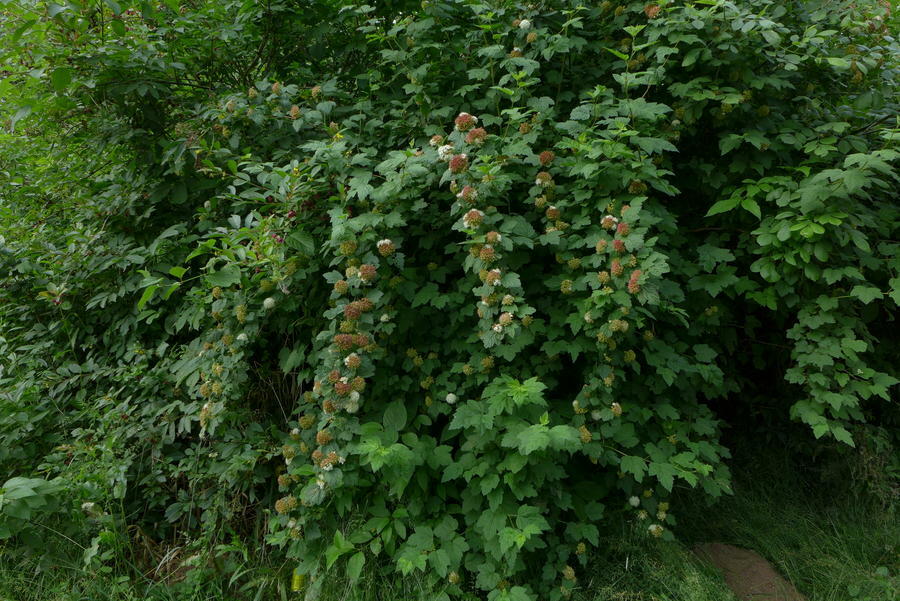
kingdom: Plantae
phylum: Tracheophyta
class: Magnoliopsida
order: Rosales
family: Rosaceae
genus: Physocarpus
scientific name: Physocarpus capitatus
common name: Pacific ninebark
